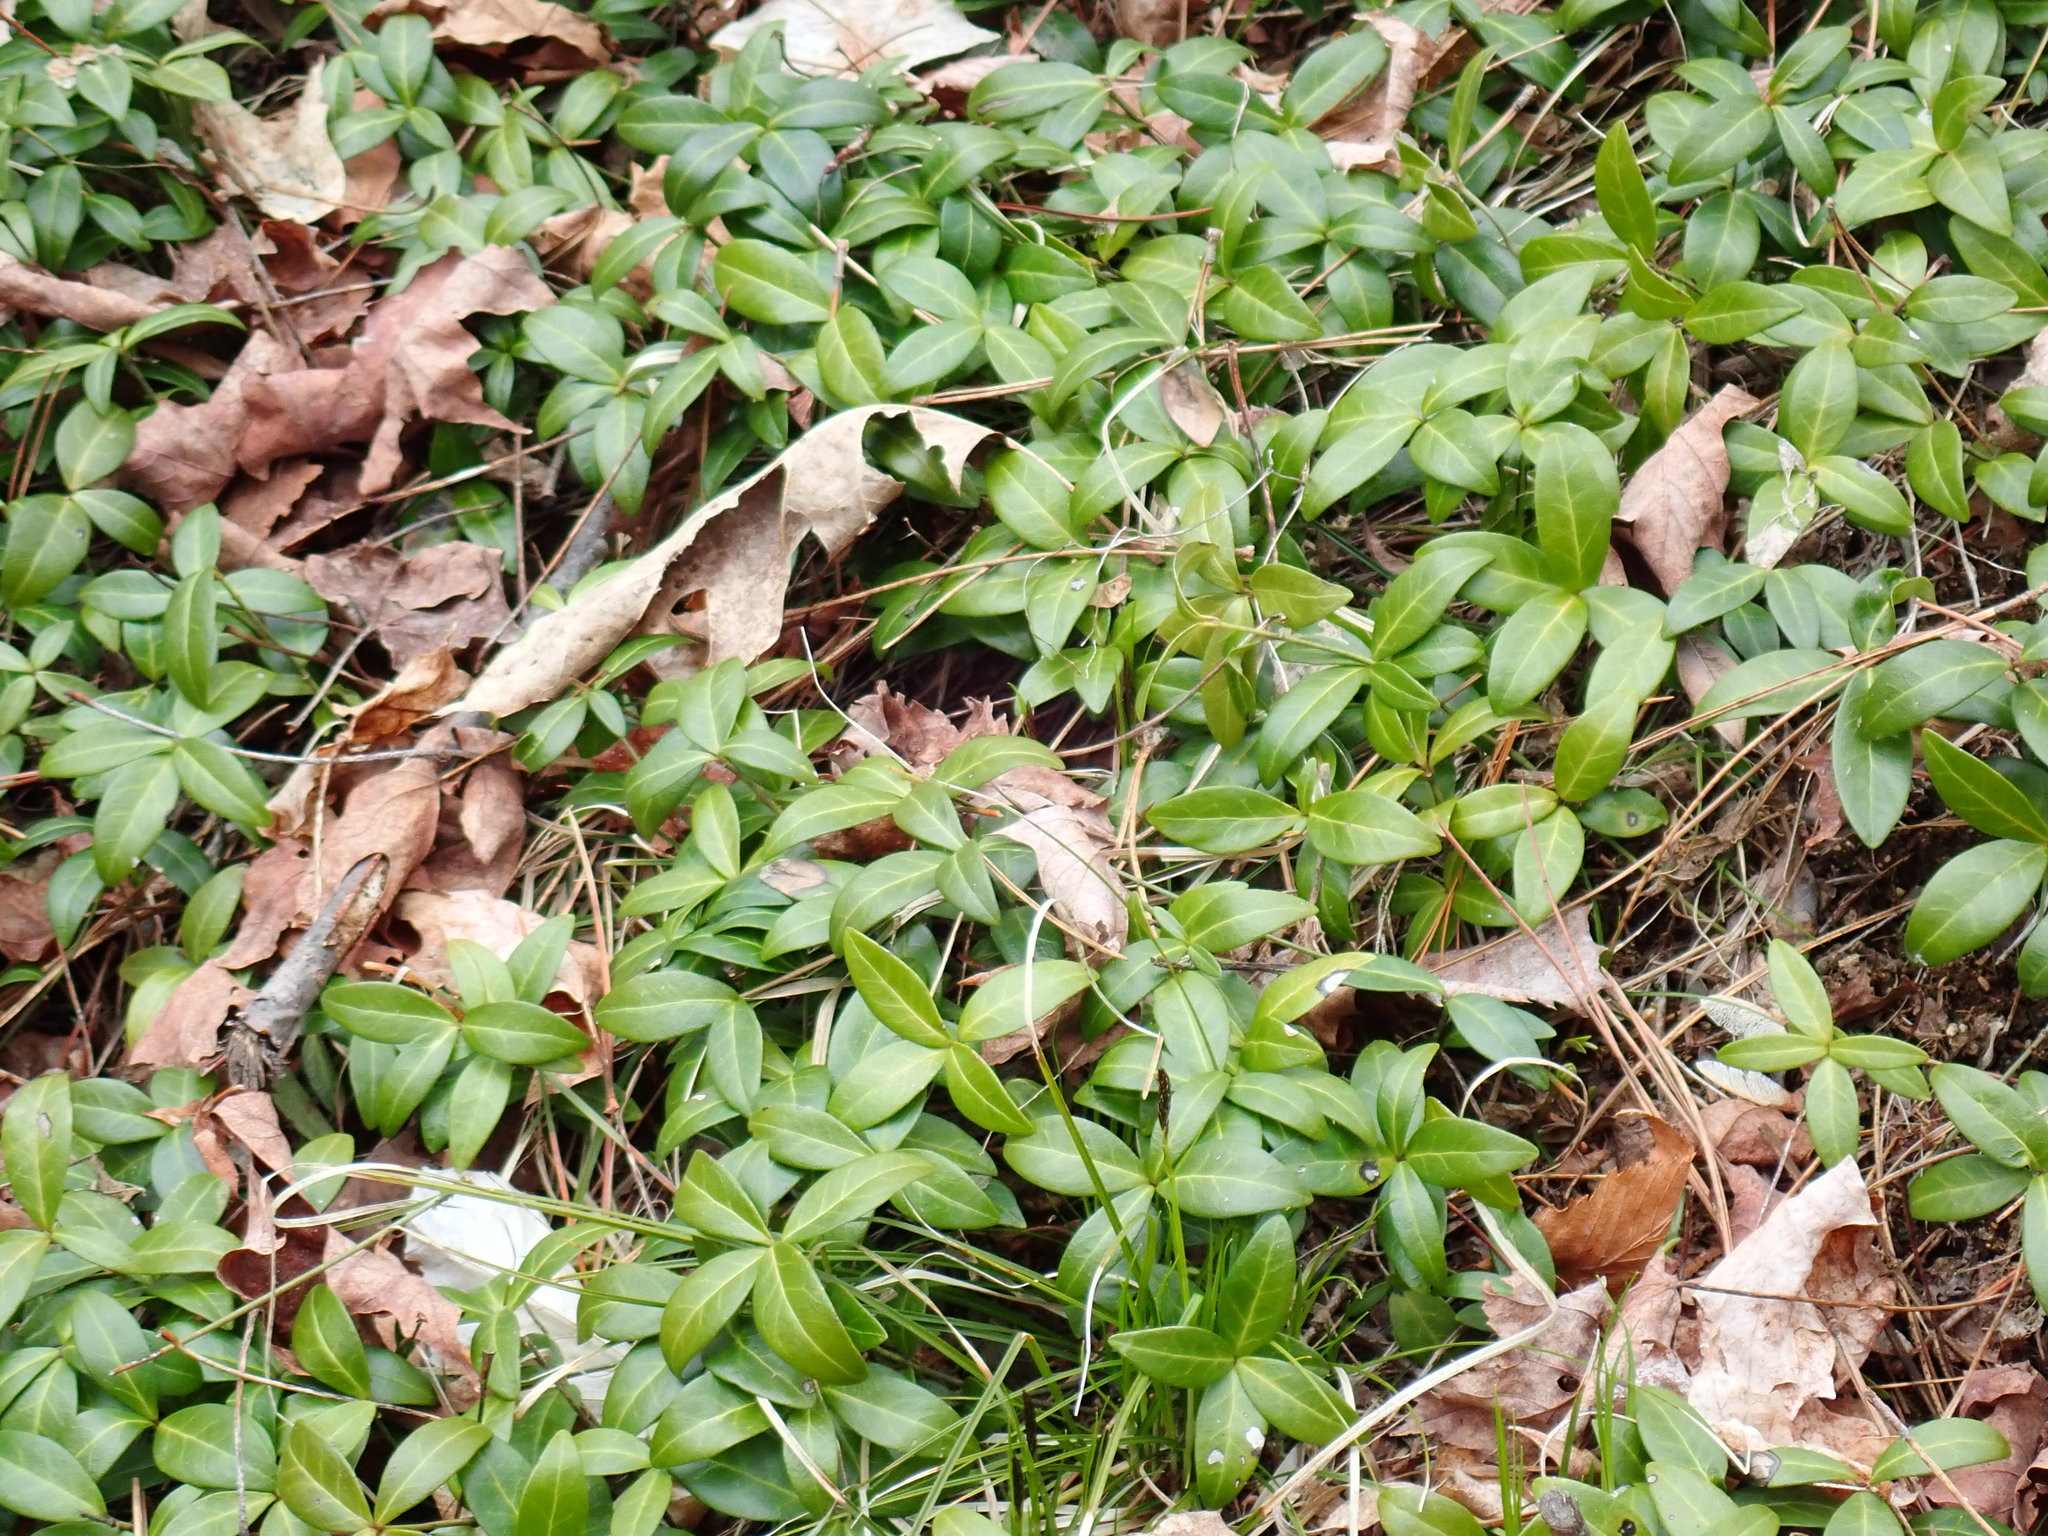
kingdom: Plantae
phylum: Tracheophyta
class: Magnoliopsida
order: Gentianales
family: Apocynaceae
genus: Vinca
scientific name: Vinca minor
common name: Lesser periwinkle
